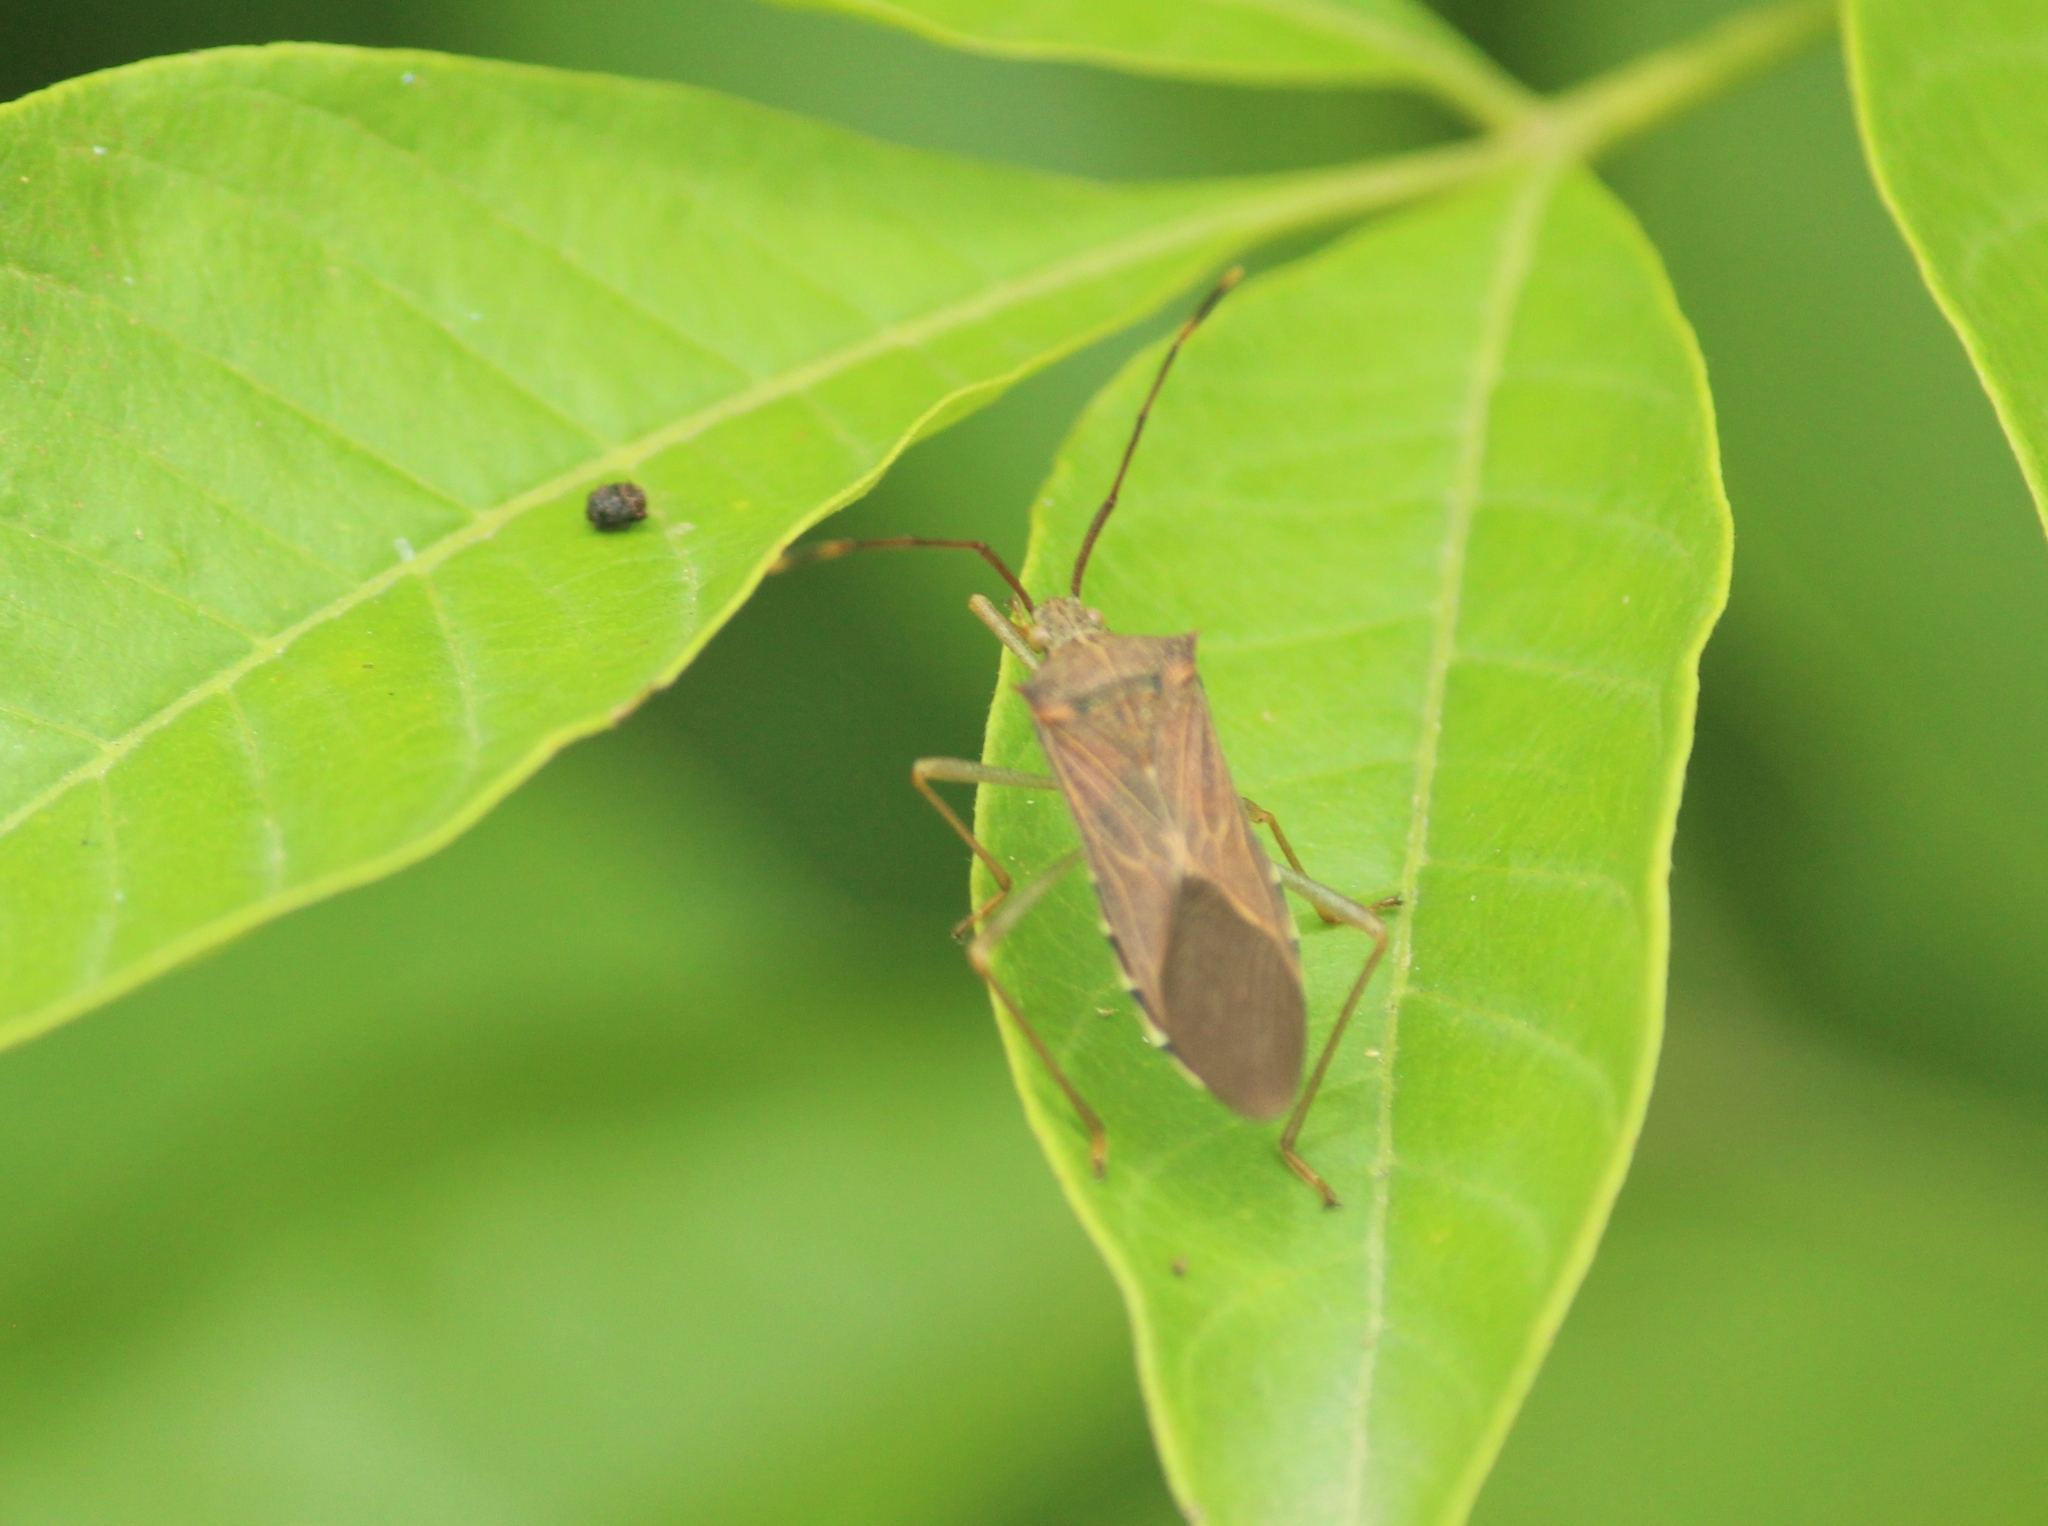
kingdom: Animalia
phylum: Arthropoda
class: Insecta
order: Hemiptera
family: Coreidae
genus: Plinachtus
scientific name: Plinachtus basalis
